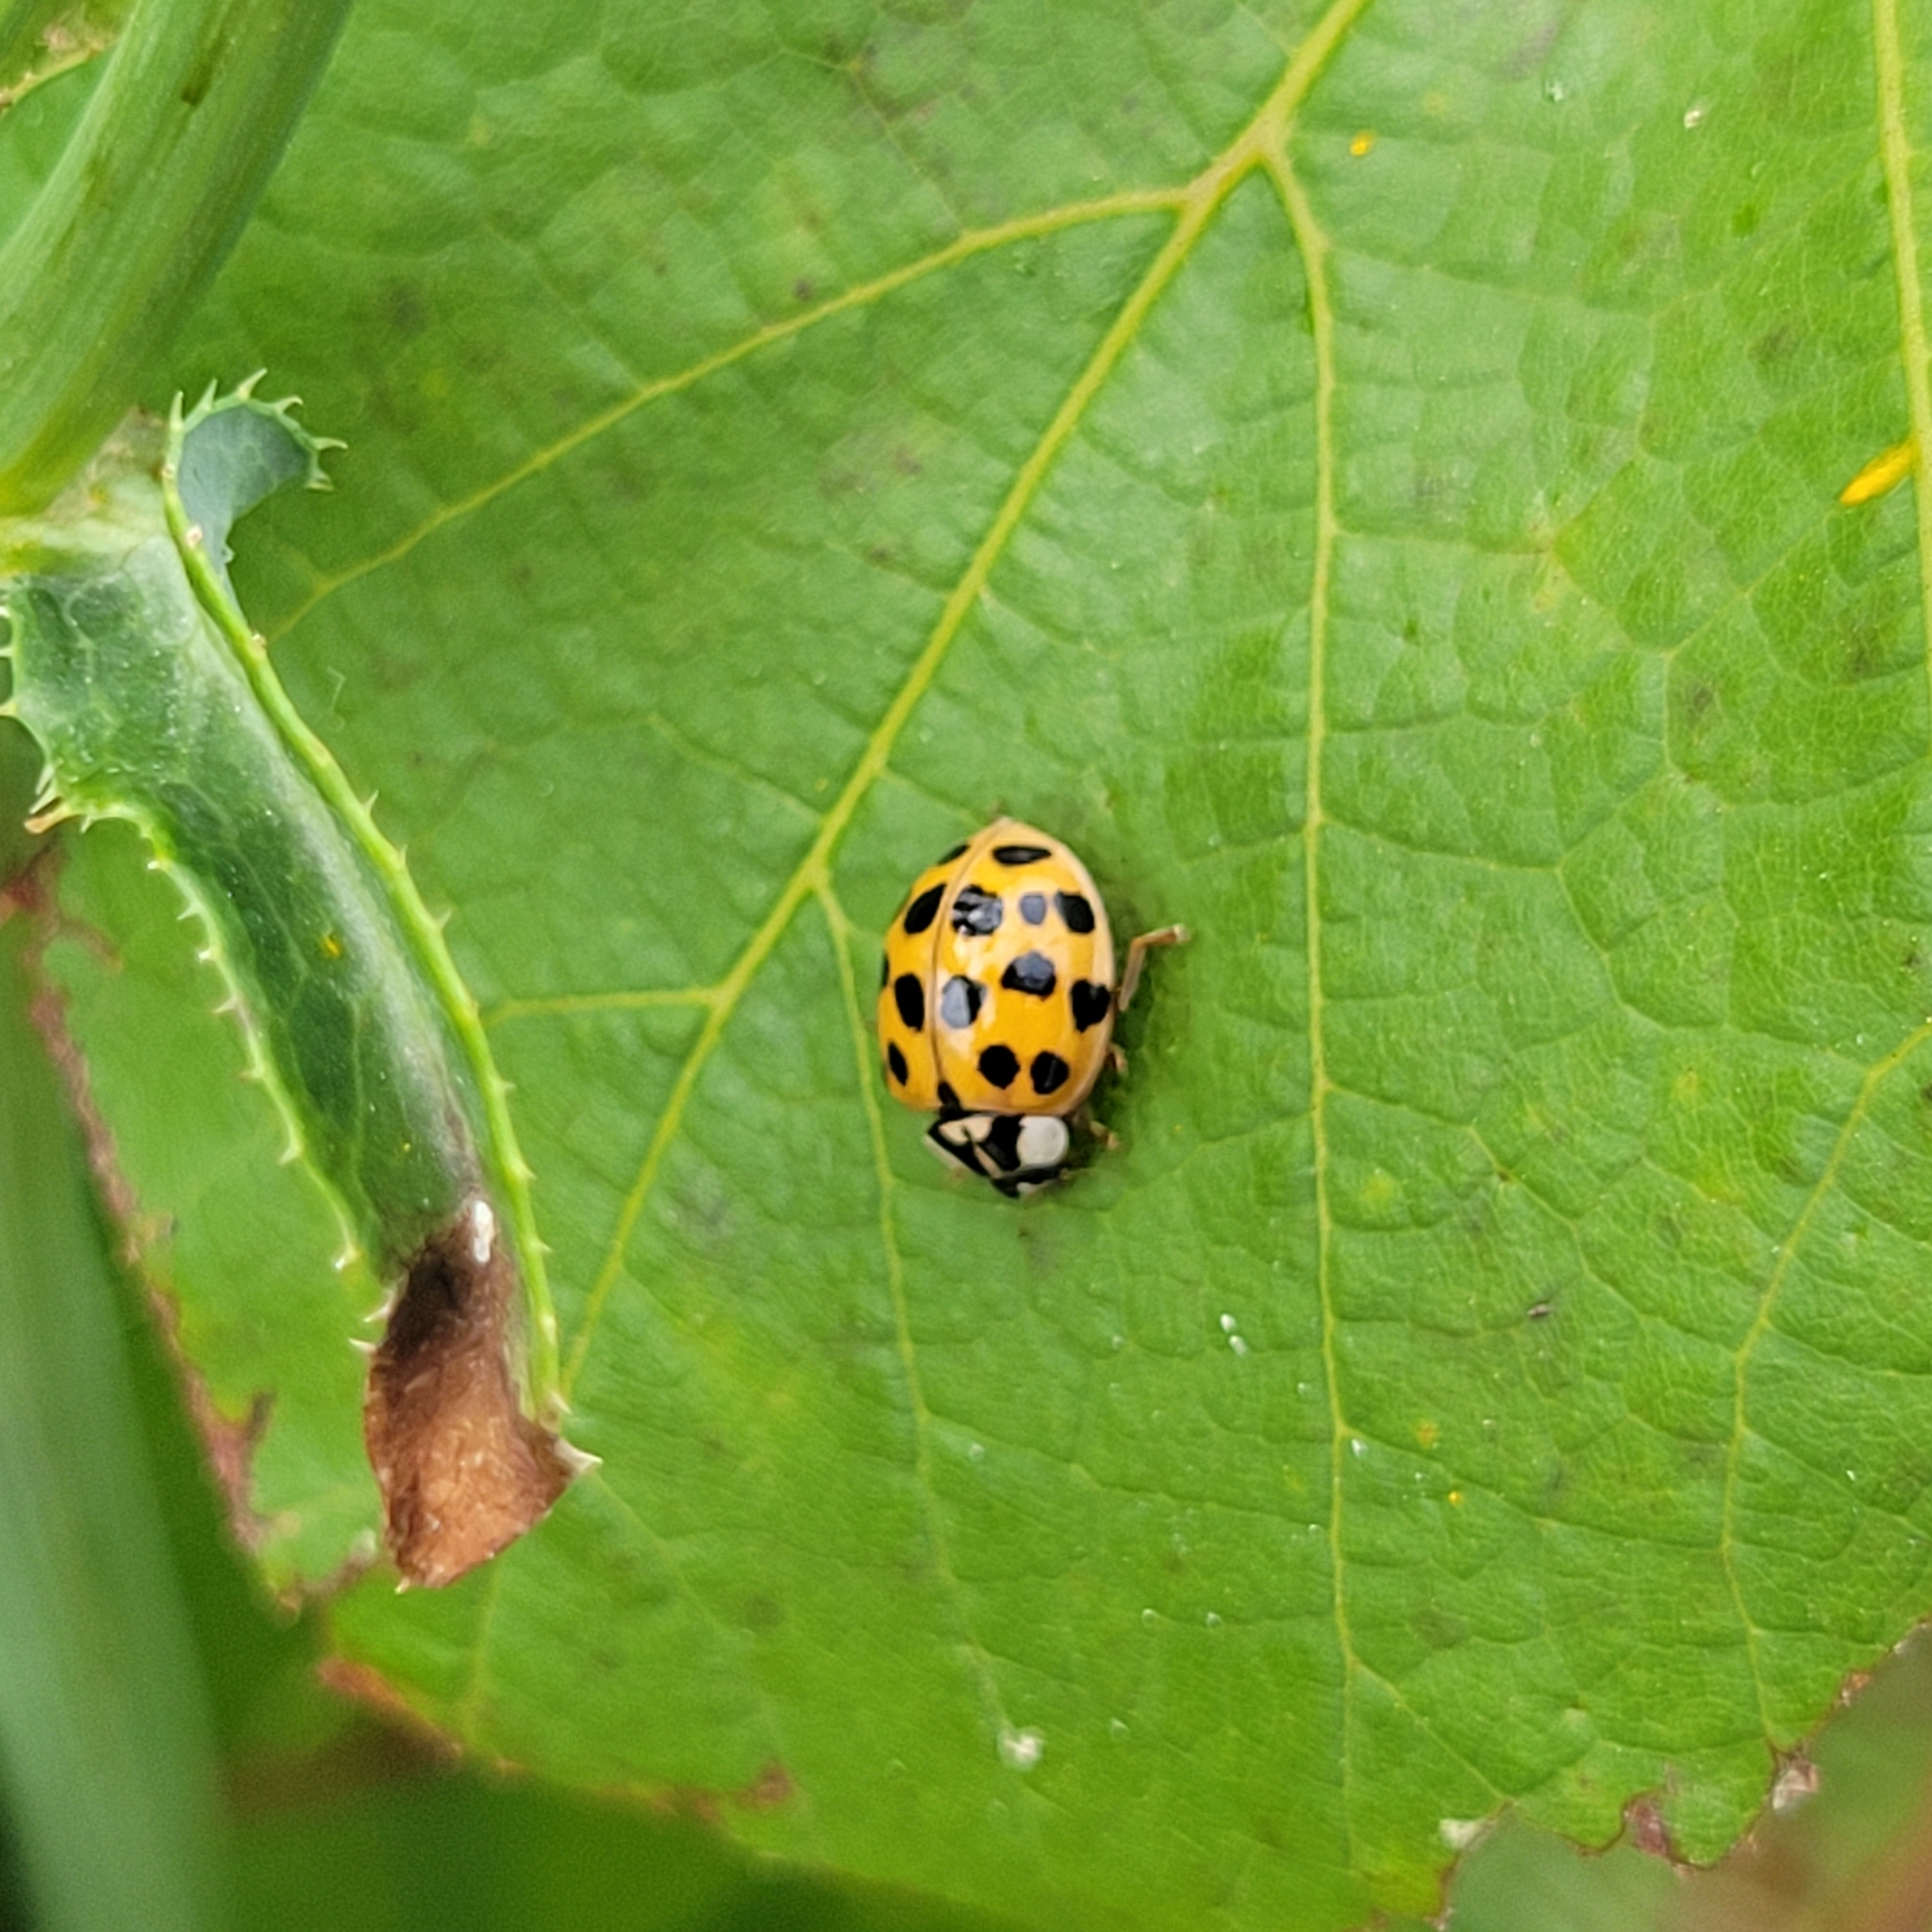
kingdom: Animalia
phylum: Arthropoda
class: Insecta
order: Coleoptera
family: Coccinellidae
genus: Harmonia
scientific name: Harmonia axyridis
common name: Harlequin ladybird
